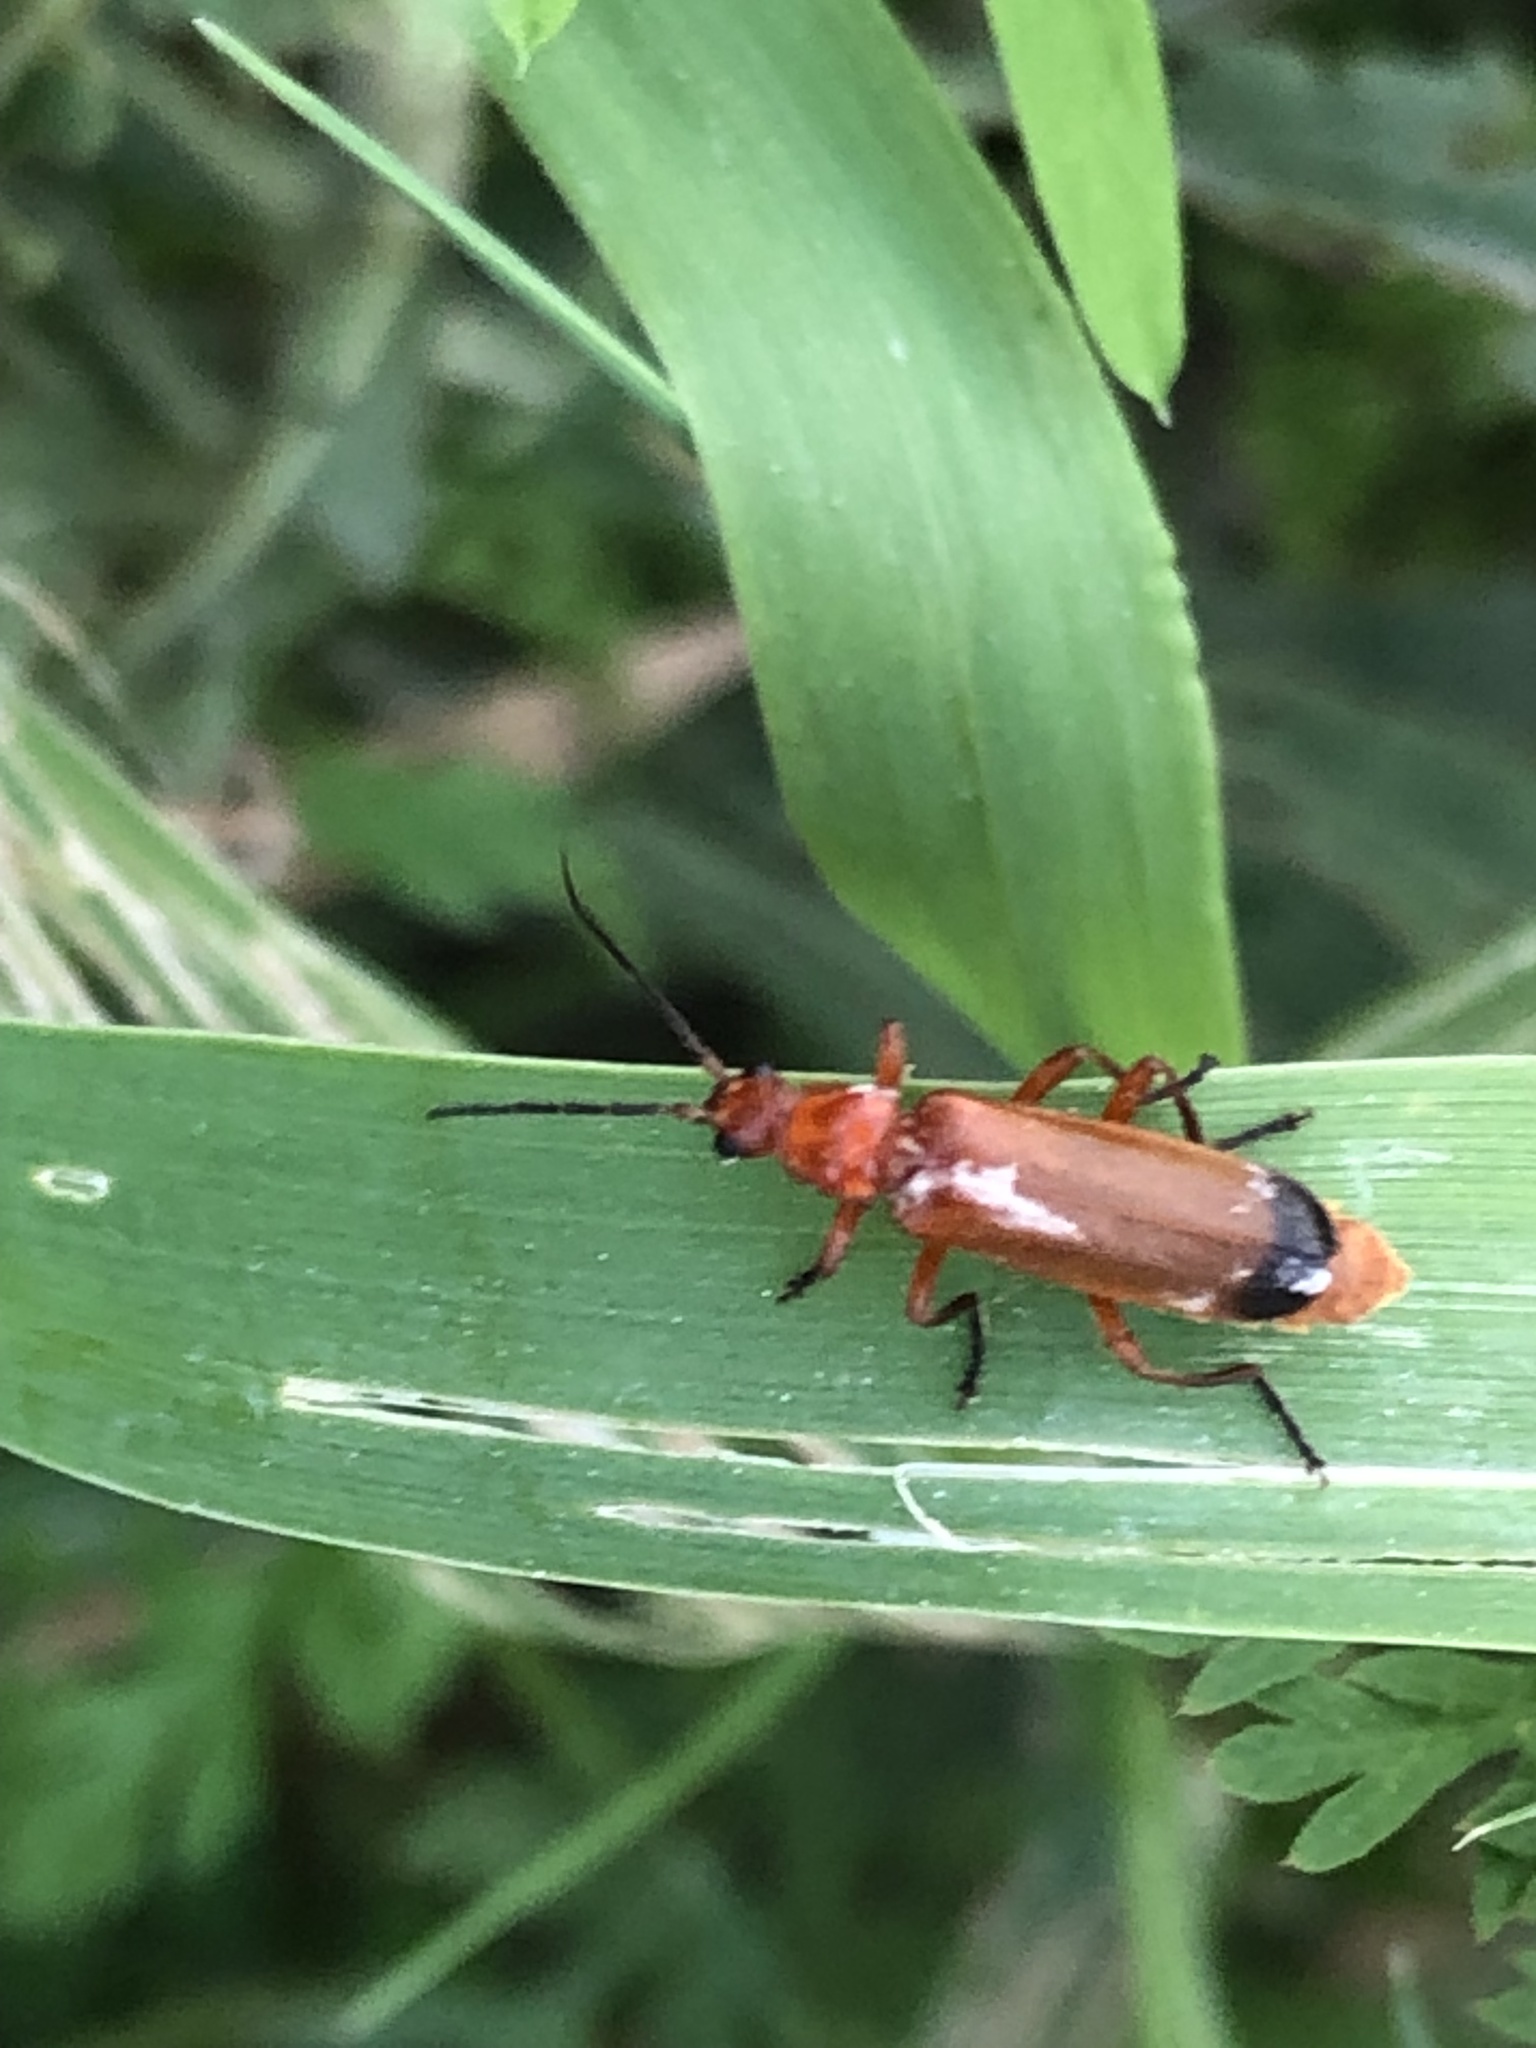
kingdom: Animalia
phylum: Arthropoda
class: Insecta
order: Coleoptera
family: Cantharidae
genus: Rhagonycha
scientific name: Rhagonycha fulva
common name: Common red soldier beetle
